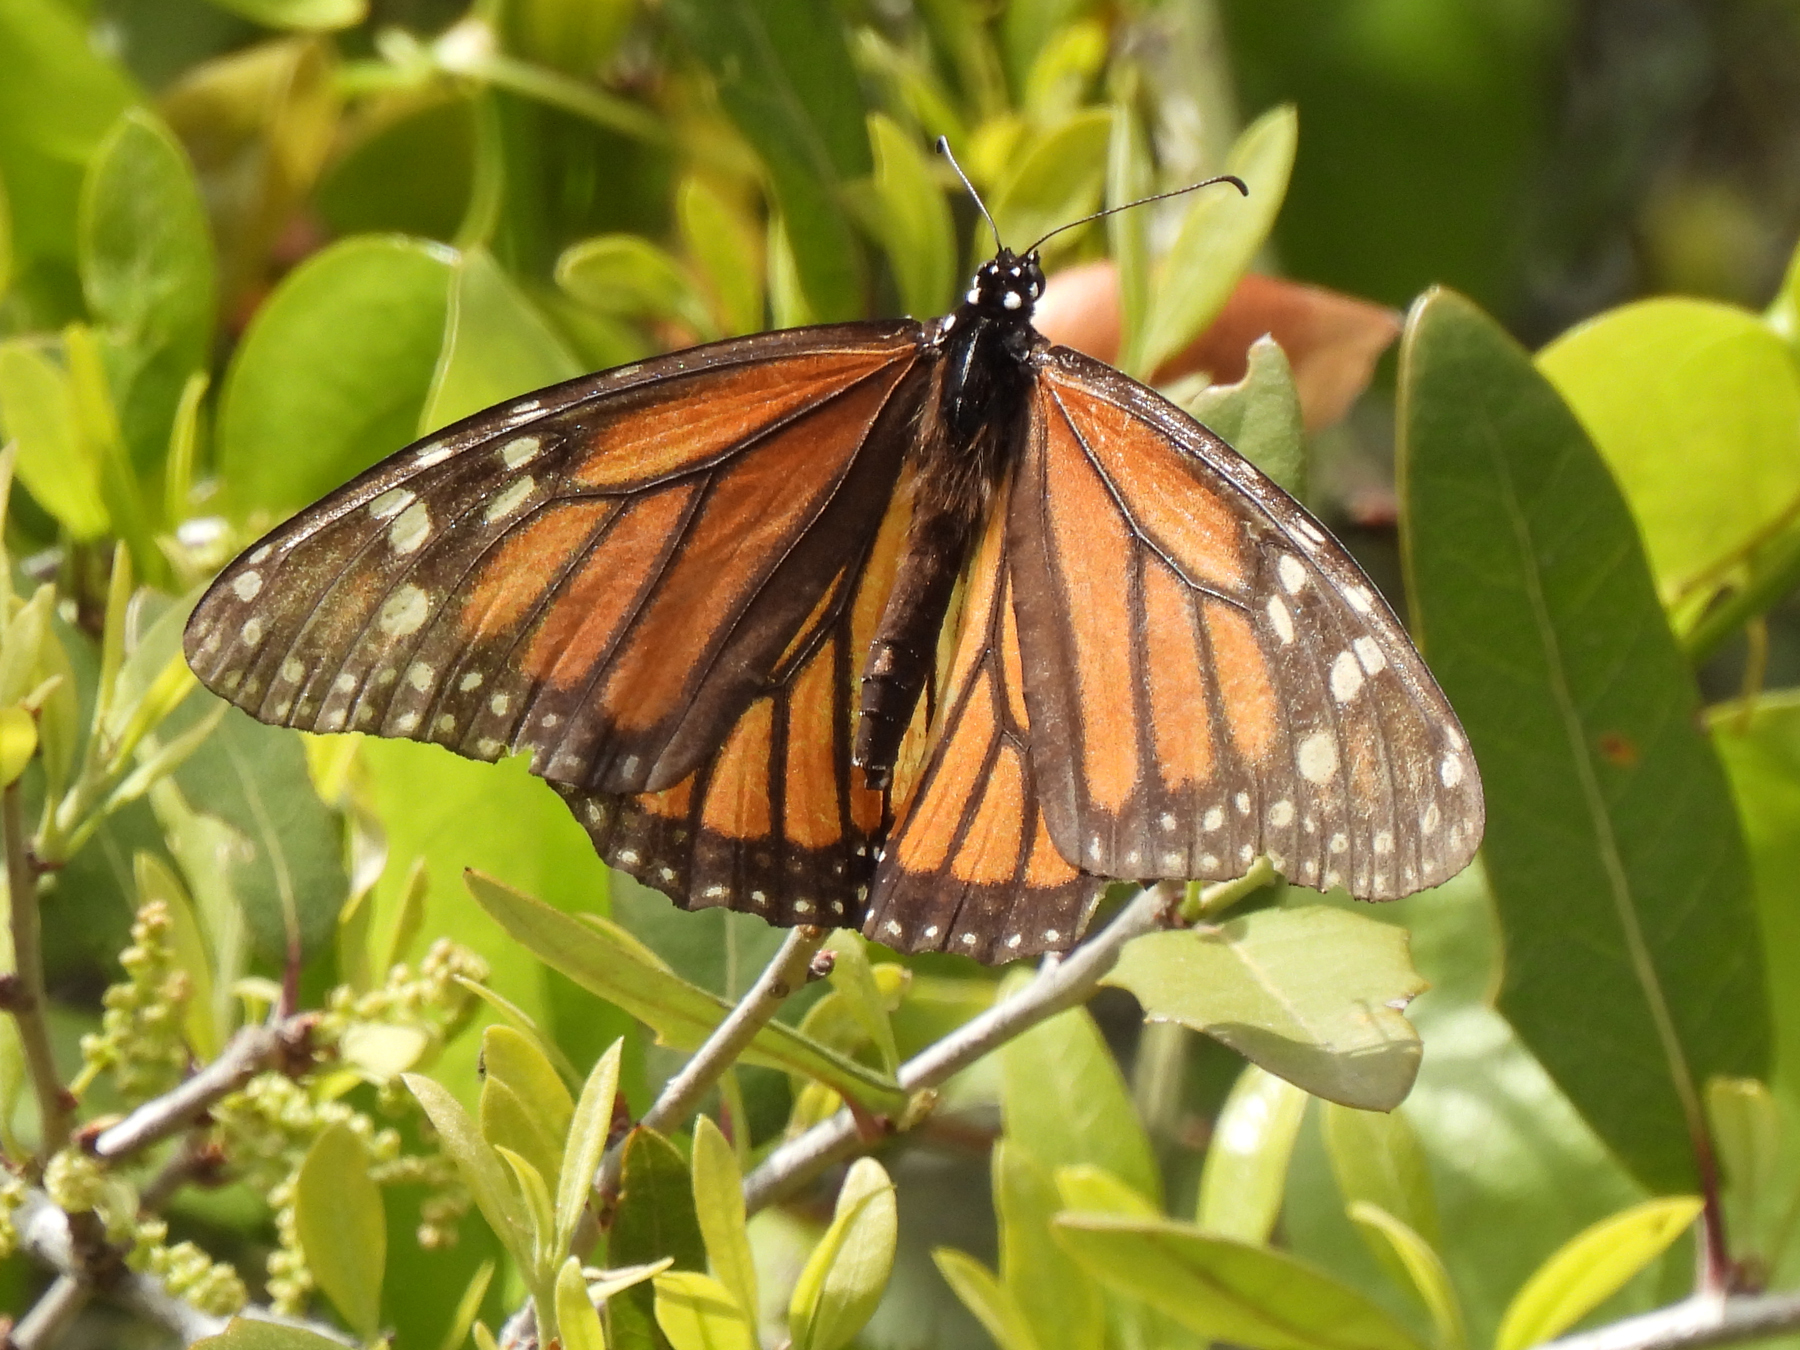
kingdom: Animalia
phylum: Arthropoda
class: Insecta
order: Lepidoptera
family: Nymphalidae
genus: Danaus
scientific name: Danaus plexippus
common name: Monarch
